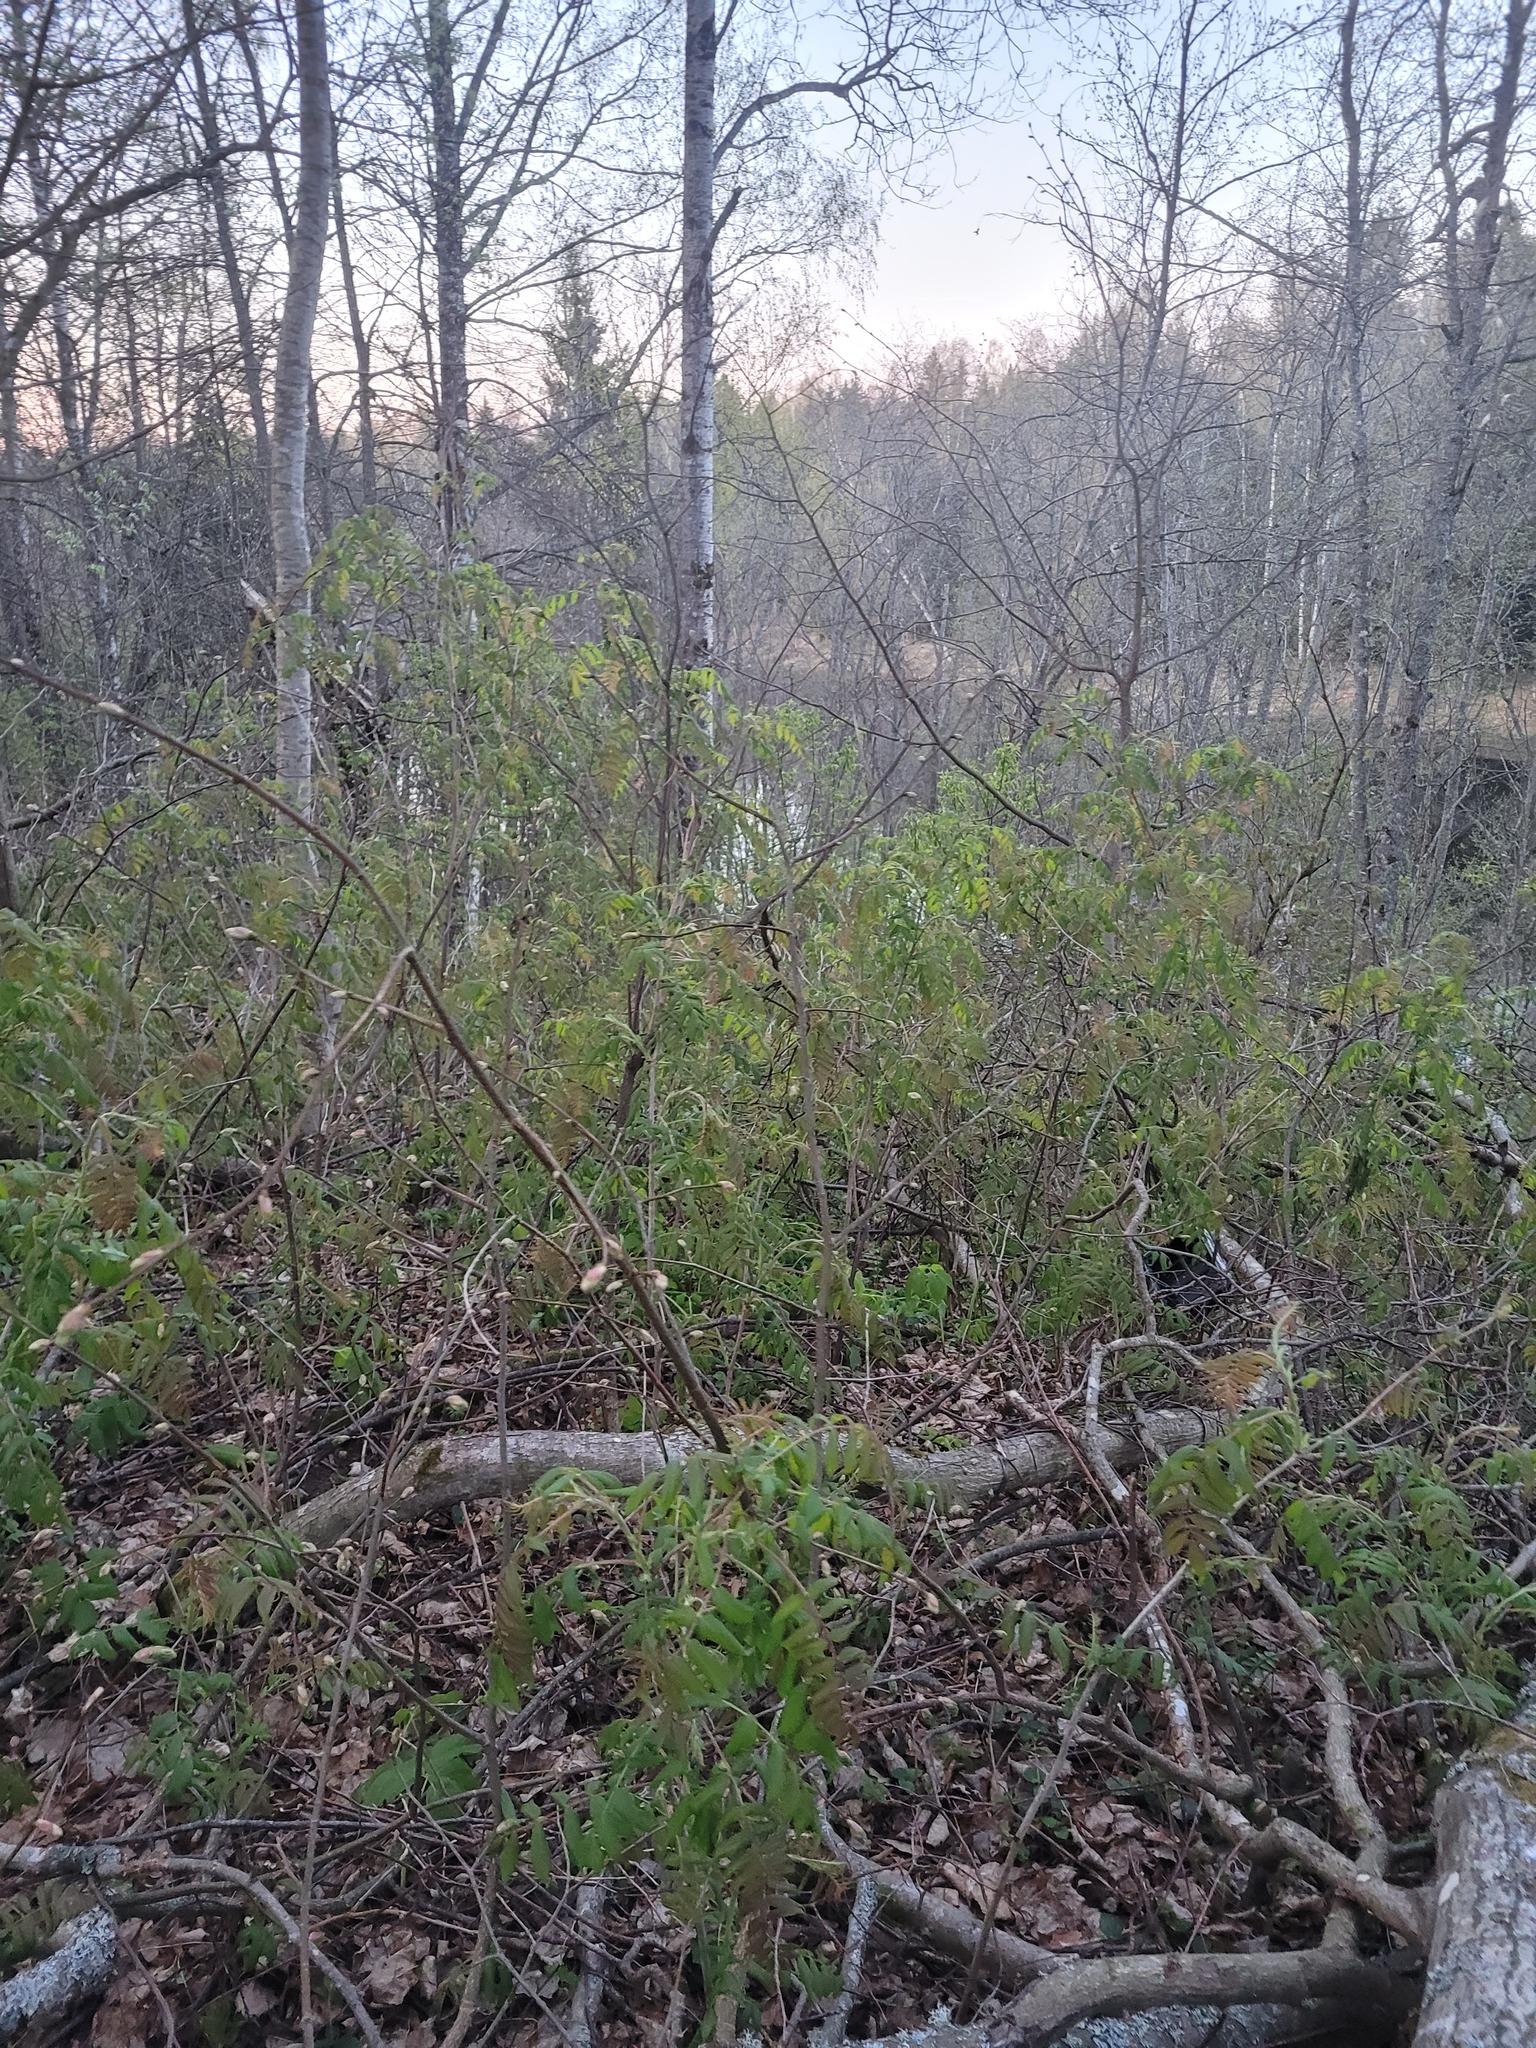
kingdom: Plantae
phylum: Tracheophyta
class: Magnoliopsida
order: Rosales
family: Rosaceae
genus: Sorbaria
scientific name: Sorbaria sorbifolia
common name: False spiraea
